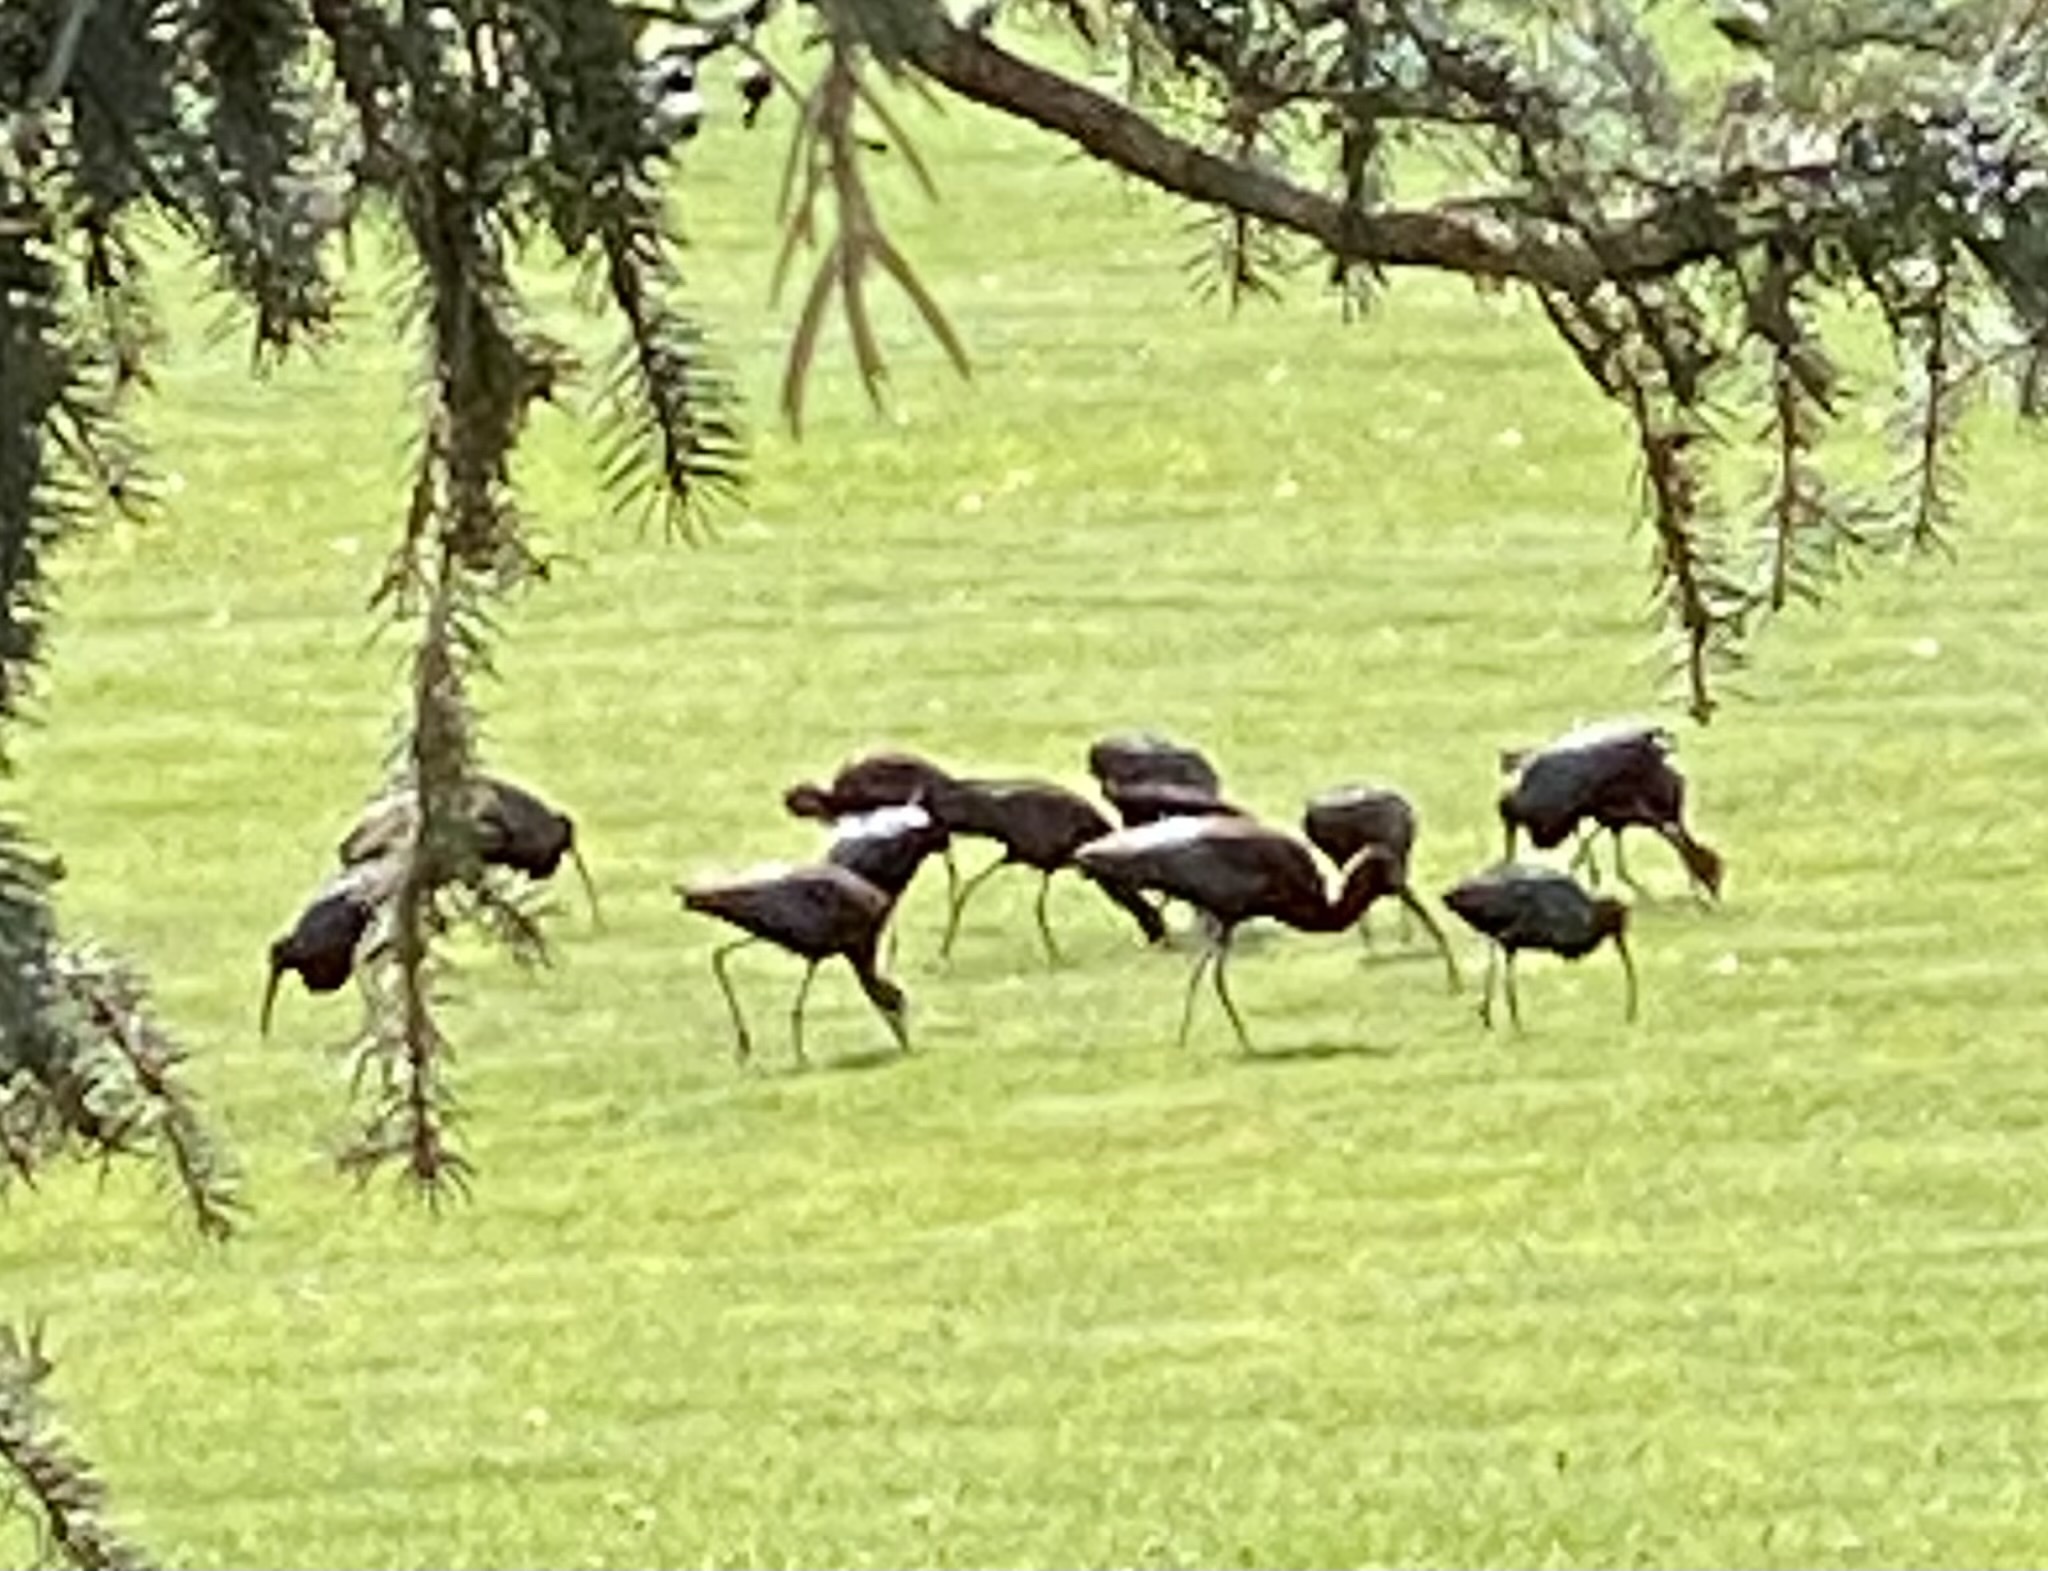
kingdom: Animalia
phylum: Chordata
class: Aves
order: Pelecaniformes
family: Threskiornithidae
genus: Plegadis
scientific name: Plegadis chihi
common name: White-faced ibis
